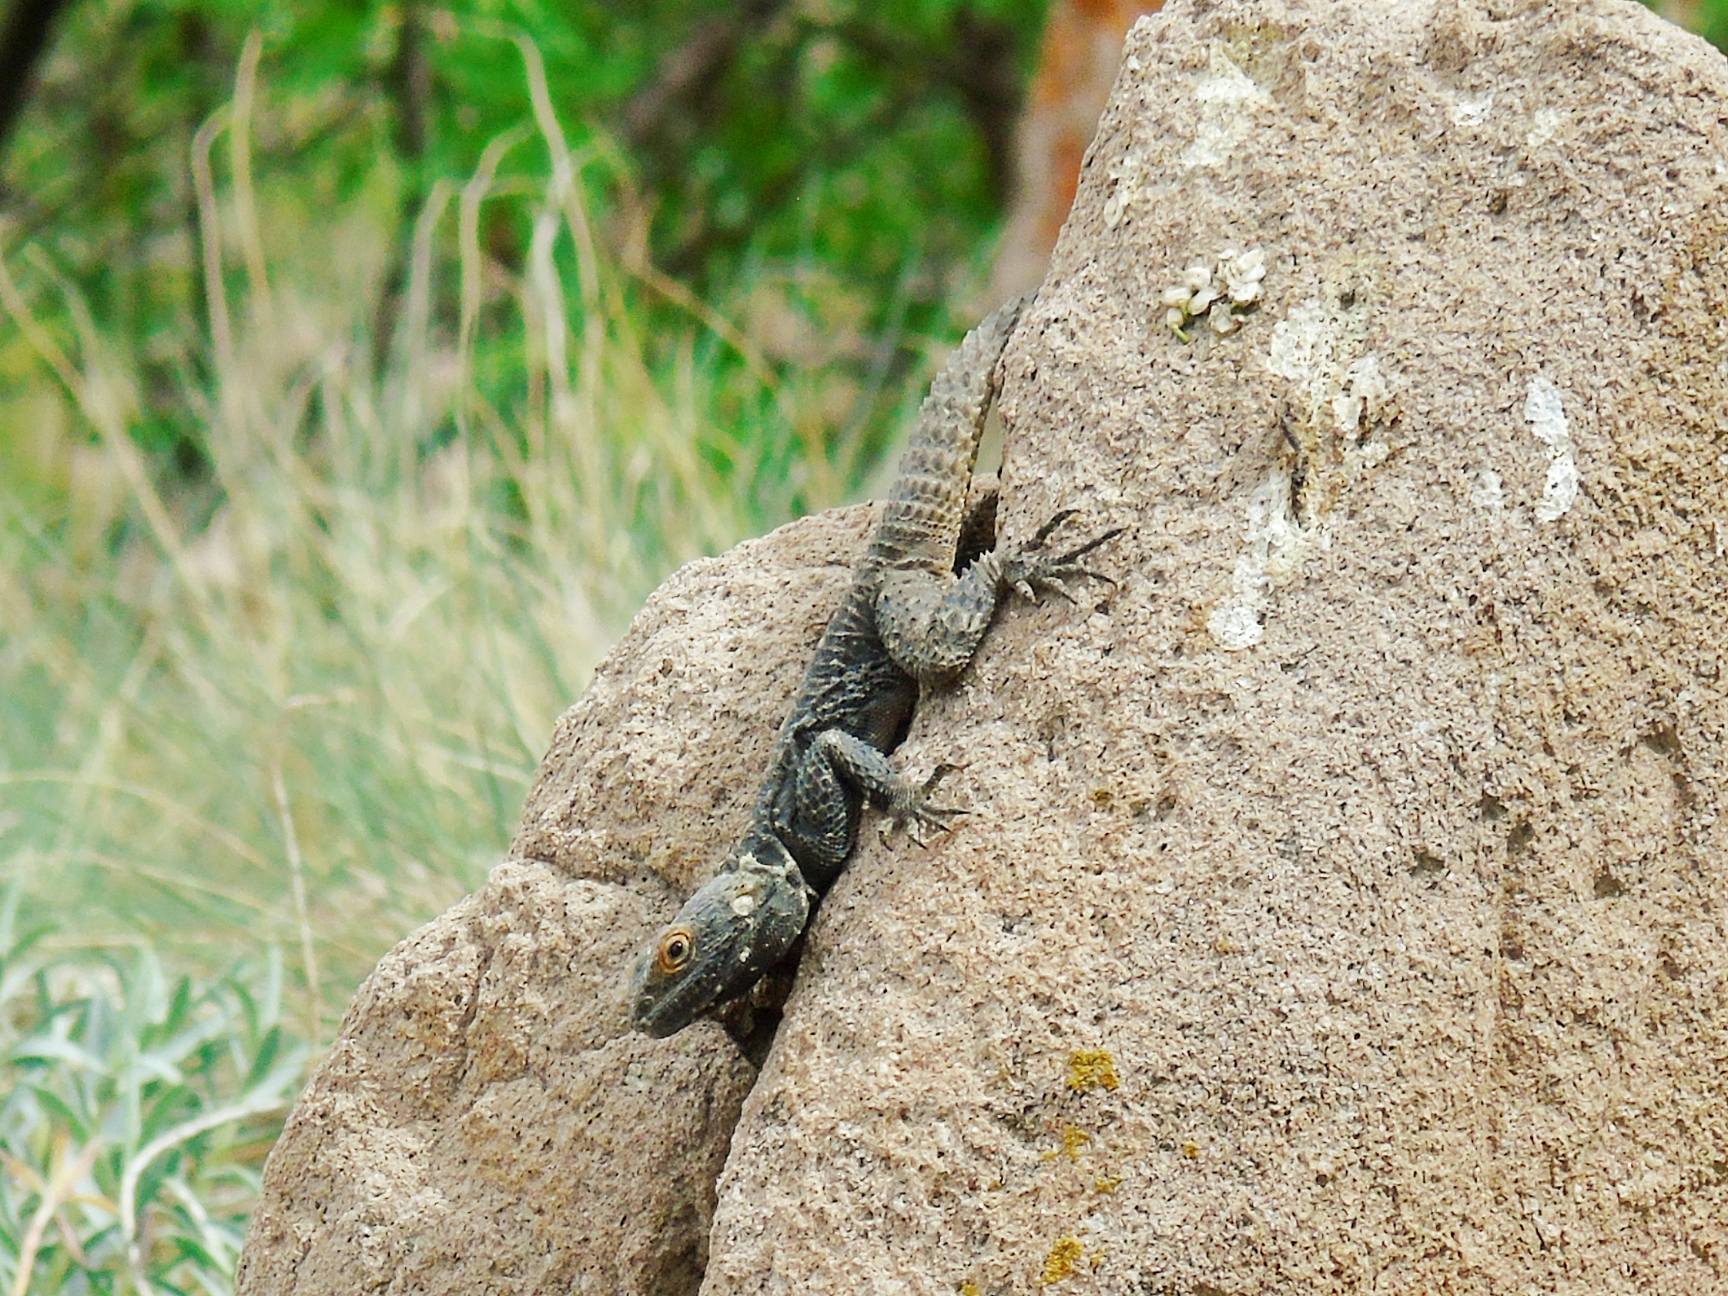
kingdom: Animalia
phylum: Chordata
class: Squamata
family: Agamidae
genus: Stellagama
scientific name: Stellagama stellio
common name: Starred agama
